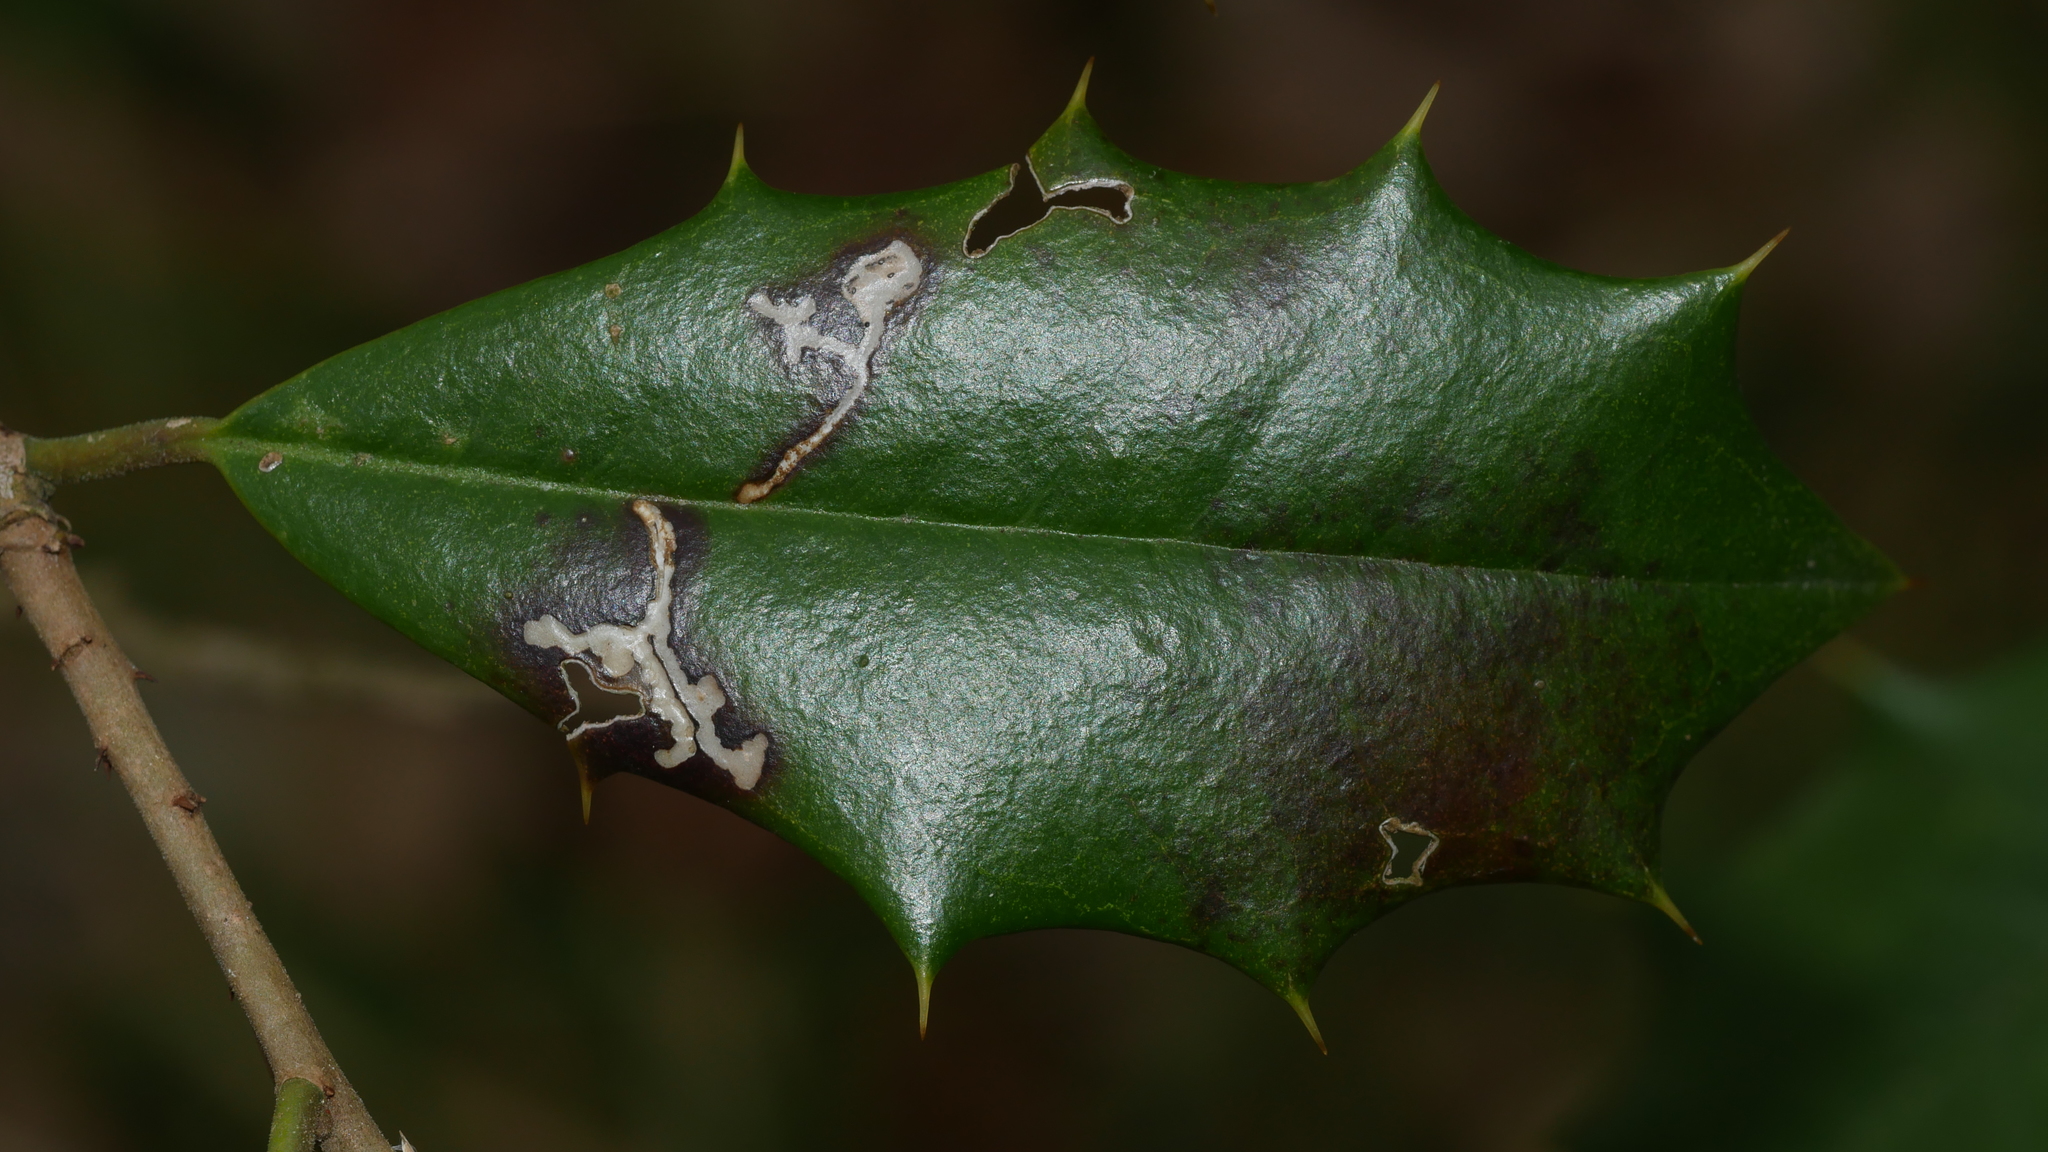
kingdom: Animalia
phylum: Arthropoda
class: Insecta
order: Lepidoptera
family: Tortricidae
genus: Rhopobota
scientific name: Rhopobota
